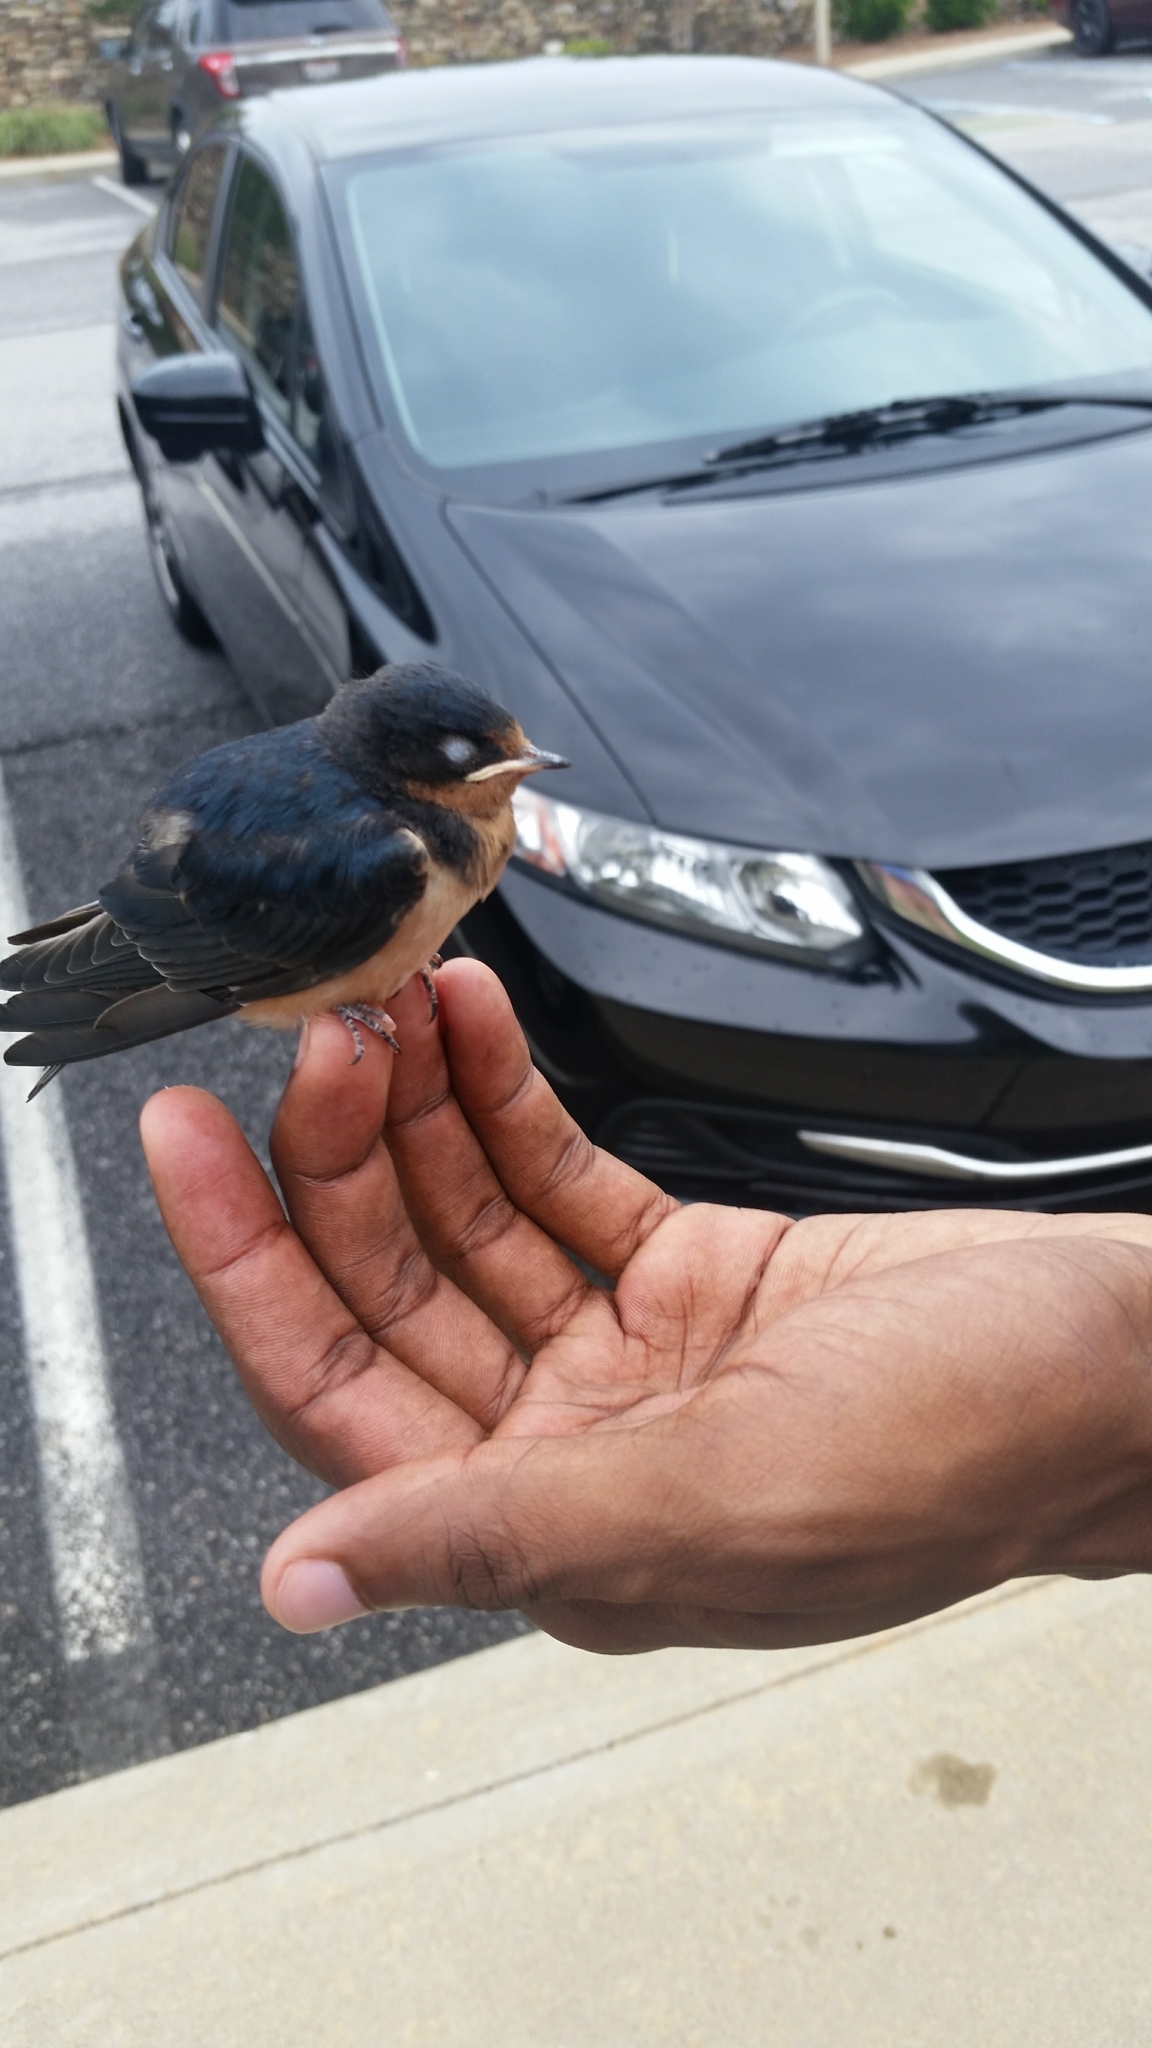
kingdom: Animalia
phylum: Chordata
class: Aves
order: Passeriformes
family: Hirundinidae
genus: Hirundo
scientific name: Hirundo rustica
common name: Barn swallow
